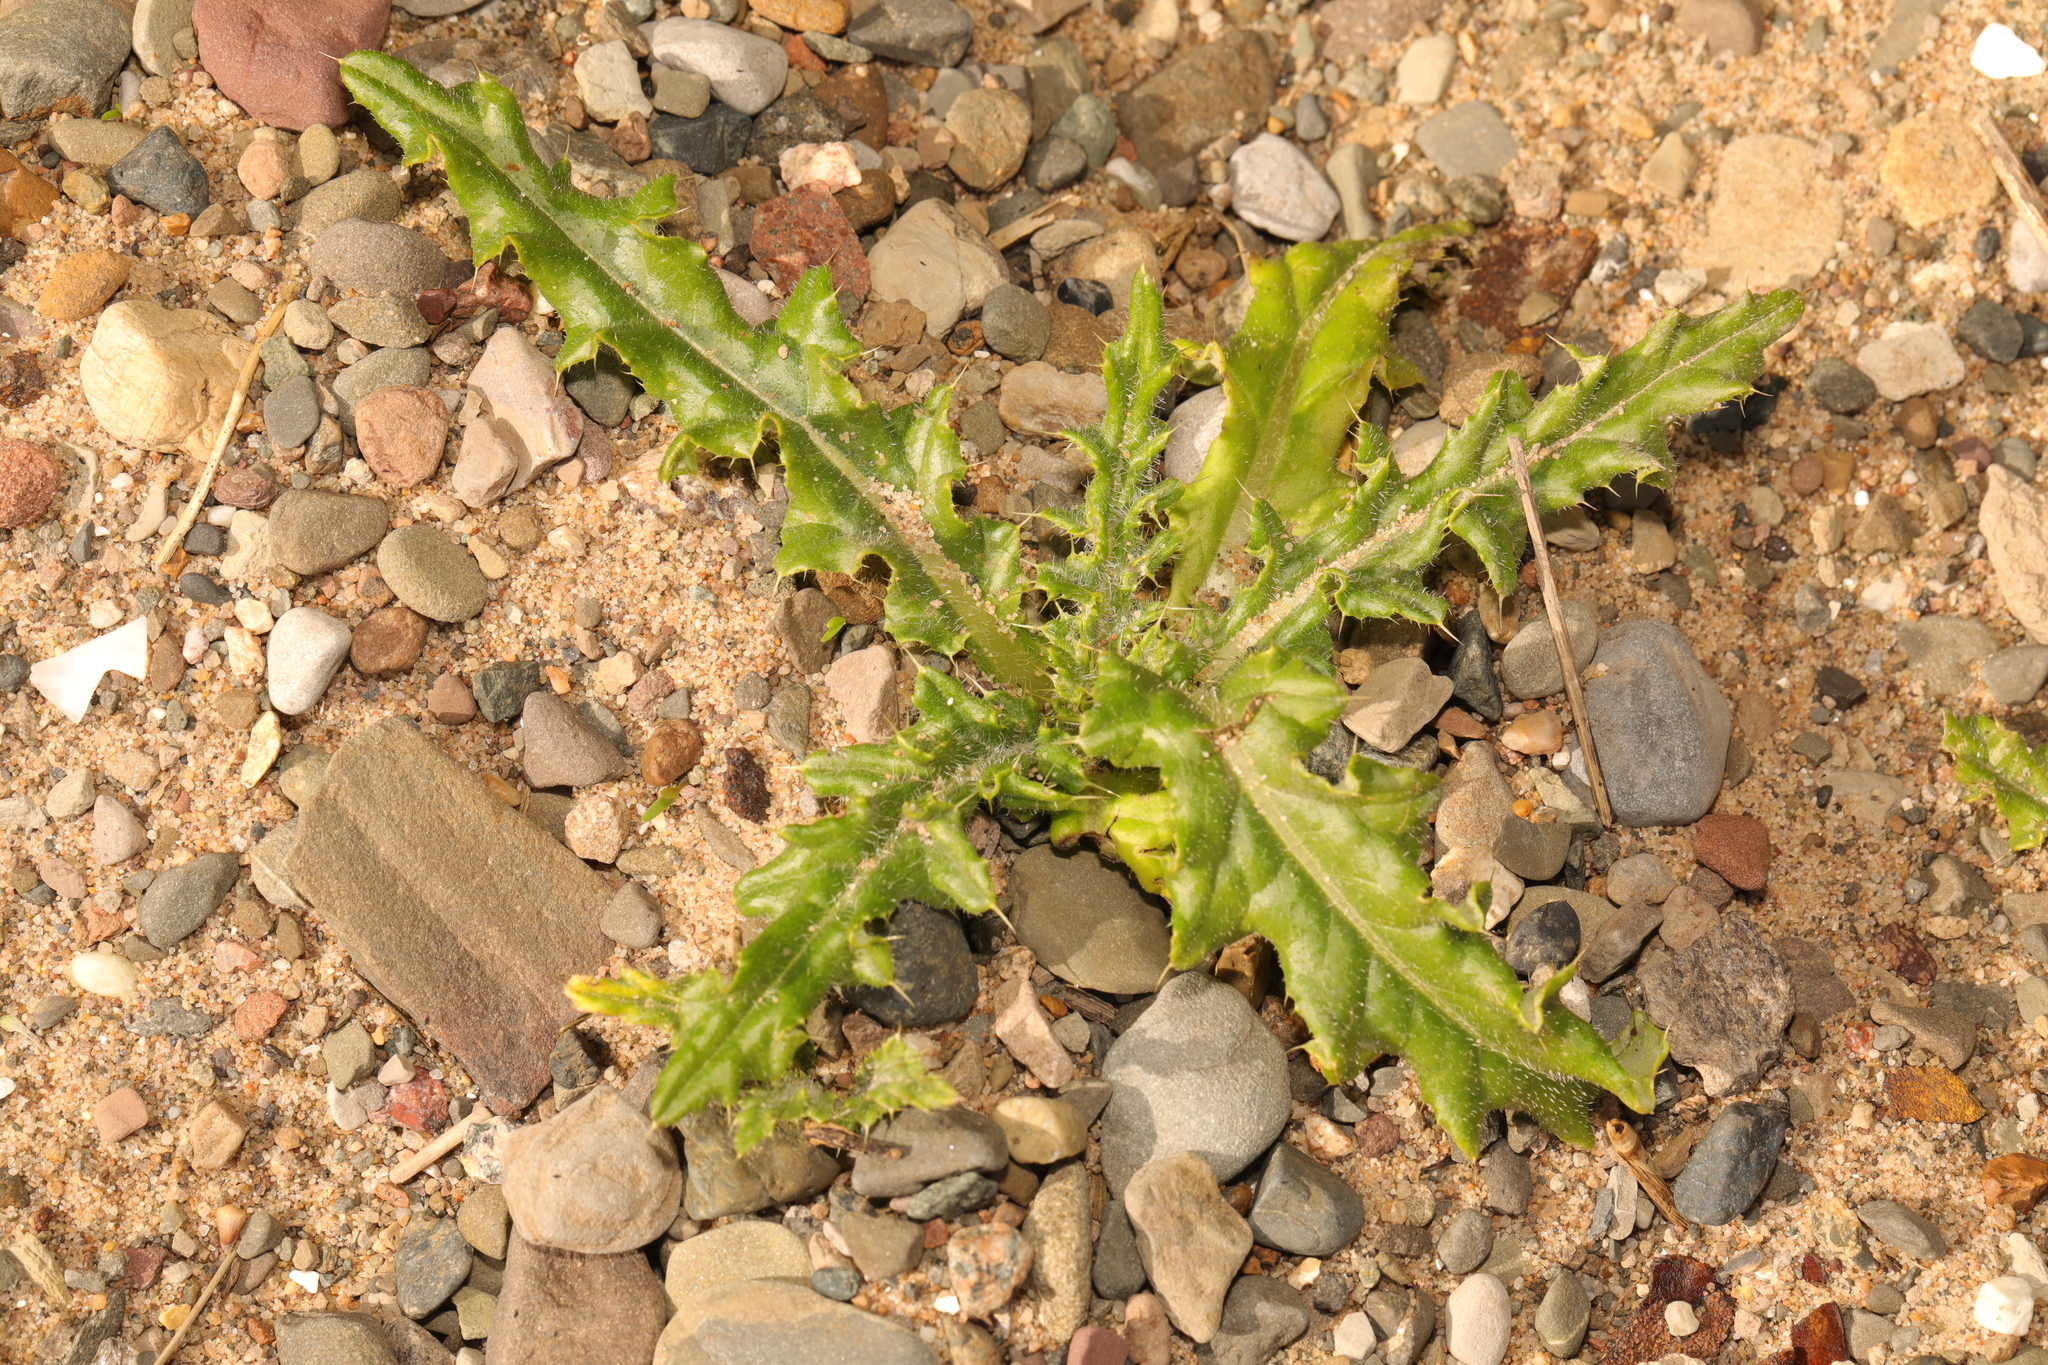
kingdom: Plantae
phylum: Tracheophyta
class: Magnoliopsida
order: Asterales
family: Asteraceae
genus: Cirsium
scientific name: Cirsium arvense
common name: Creeping thistle
